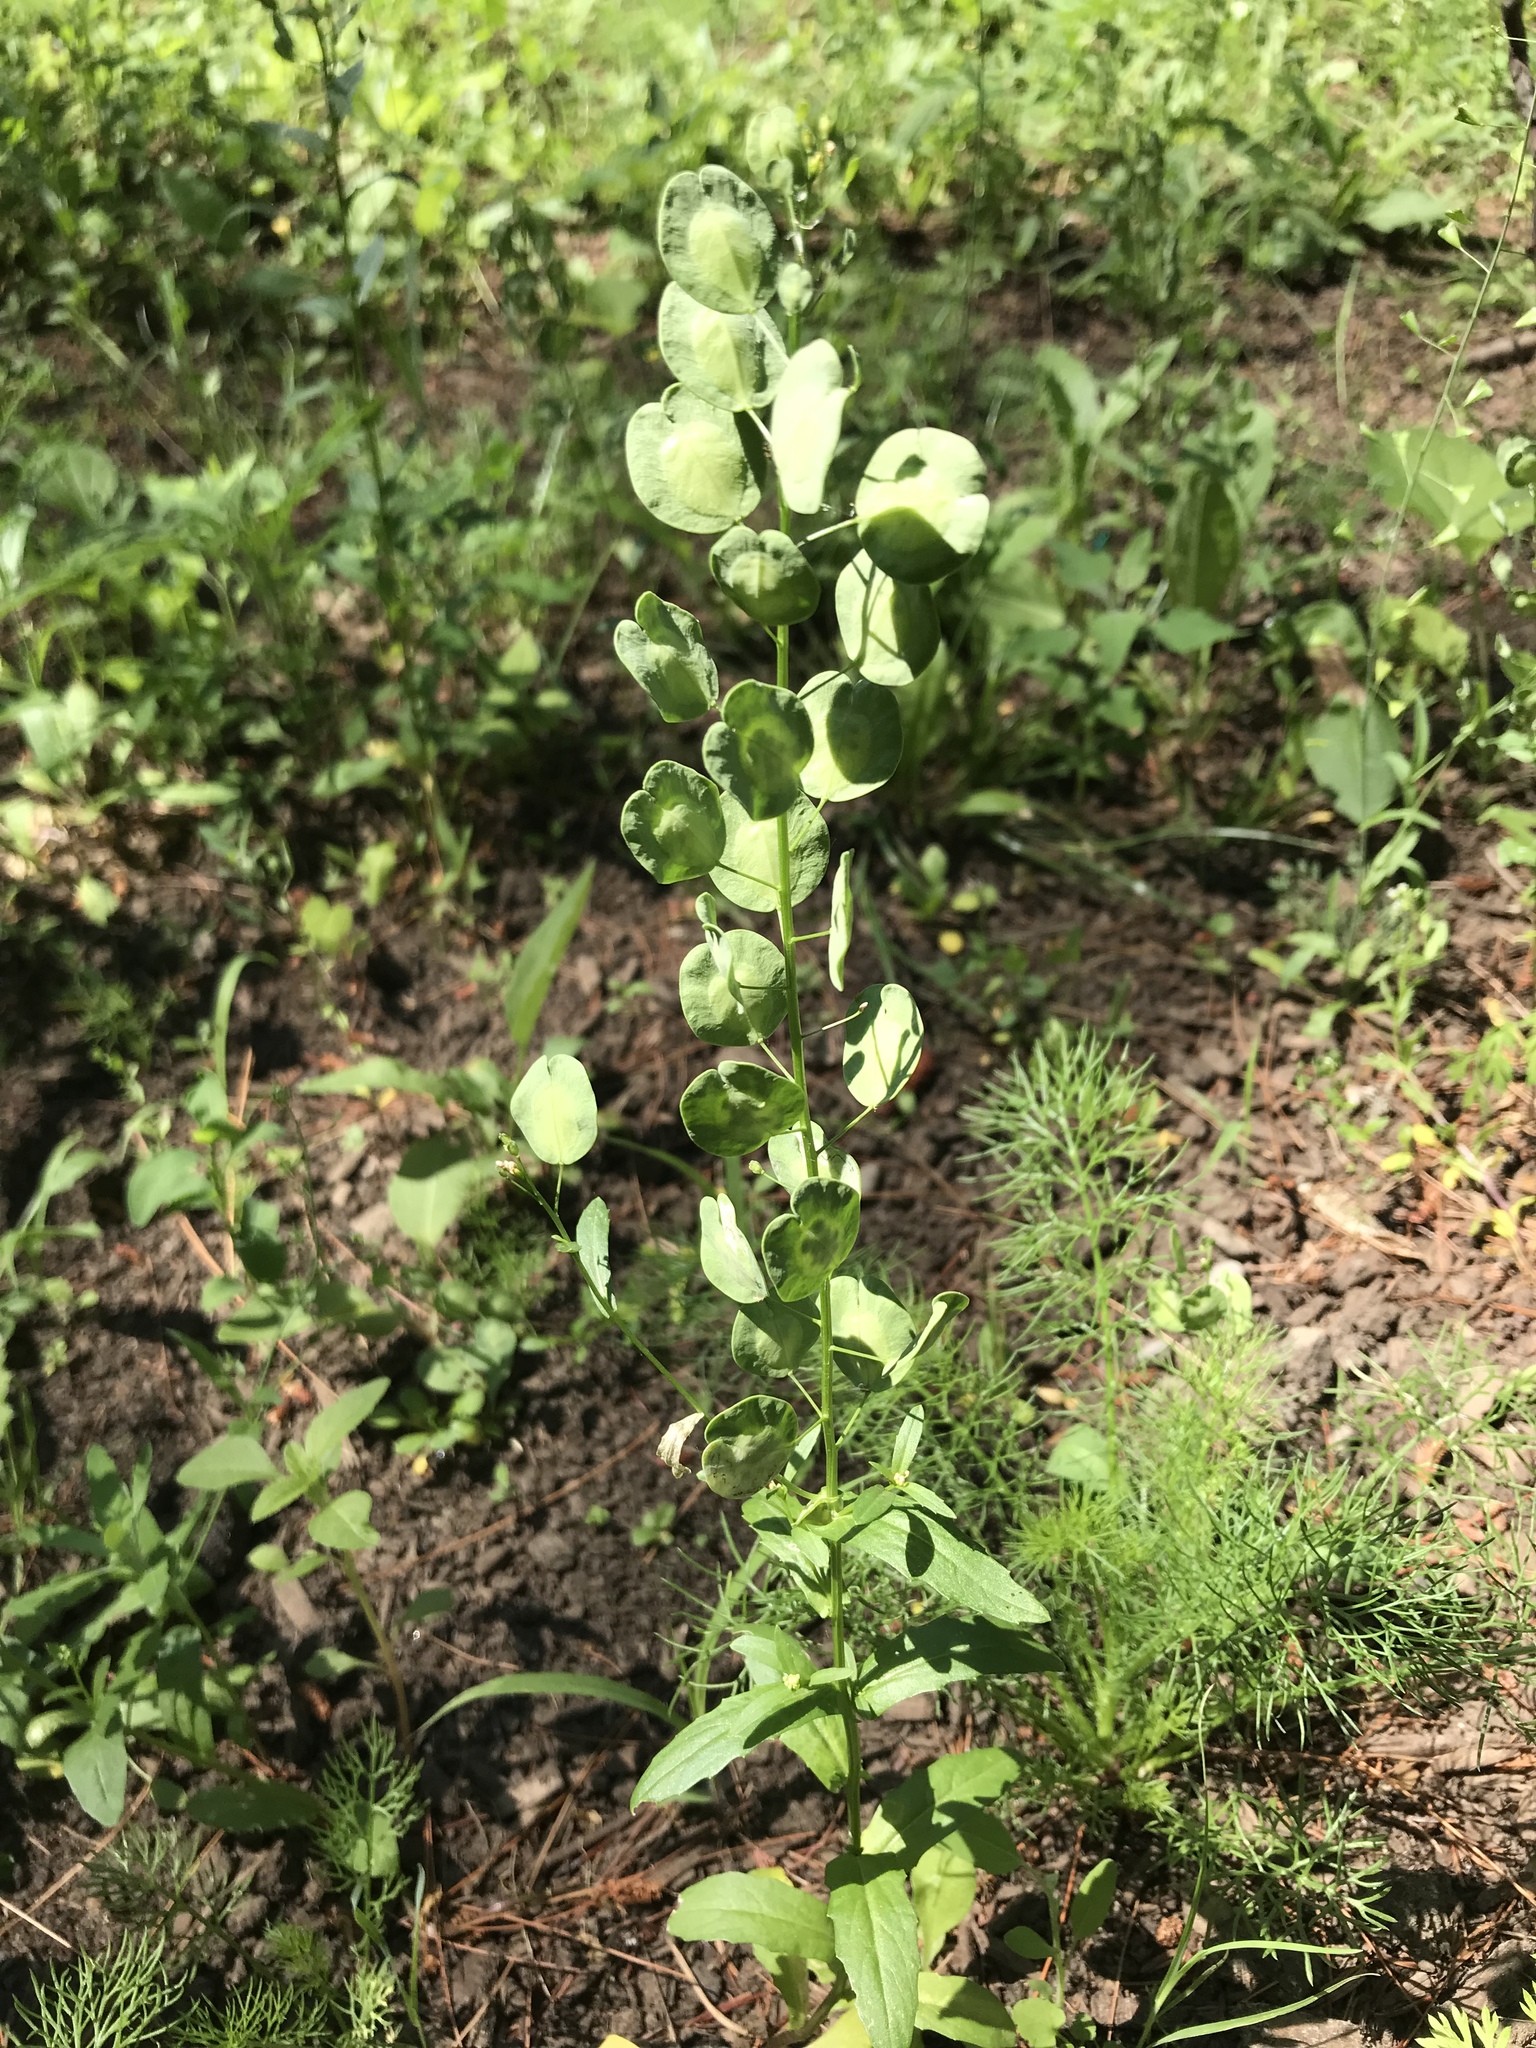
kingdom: Plantae
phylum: Tracheophyta
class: Magnoliopsida
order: Brassicales
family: Brassicaceae
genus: Thlaspi
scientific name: Thlaspi arvense
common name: Field pennycress
